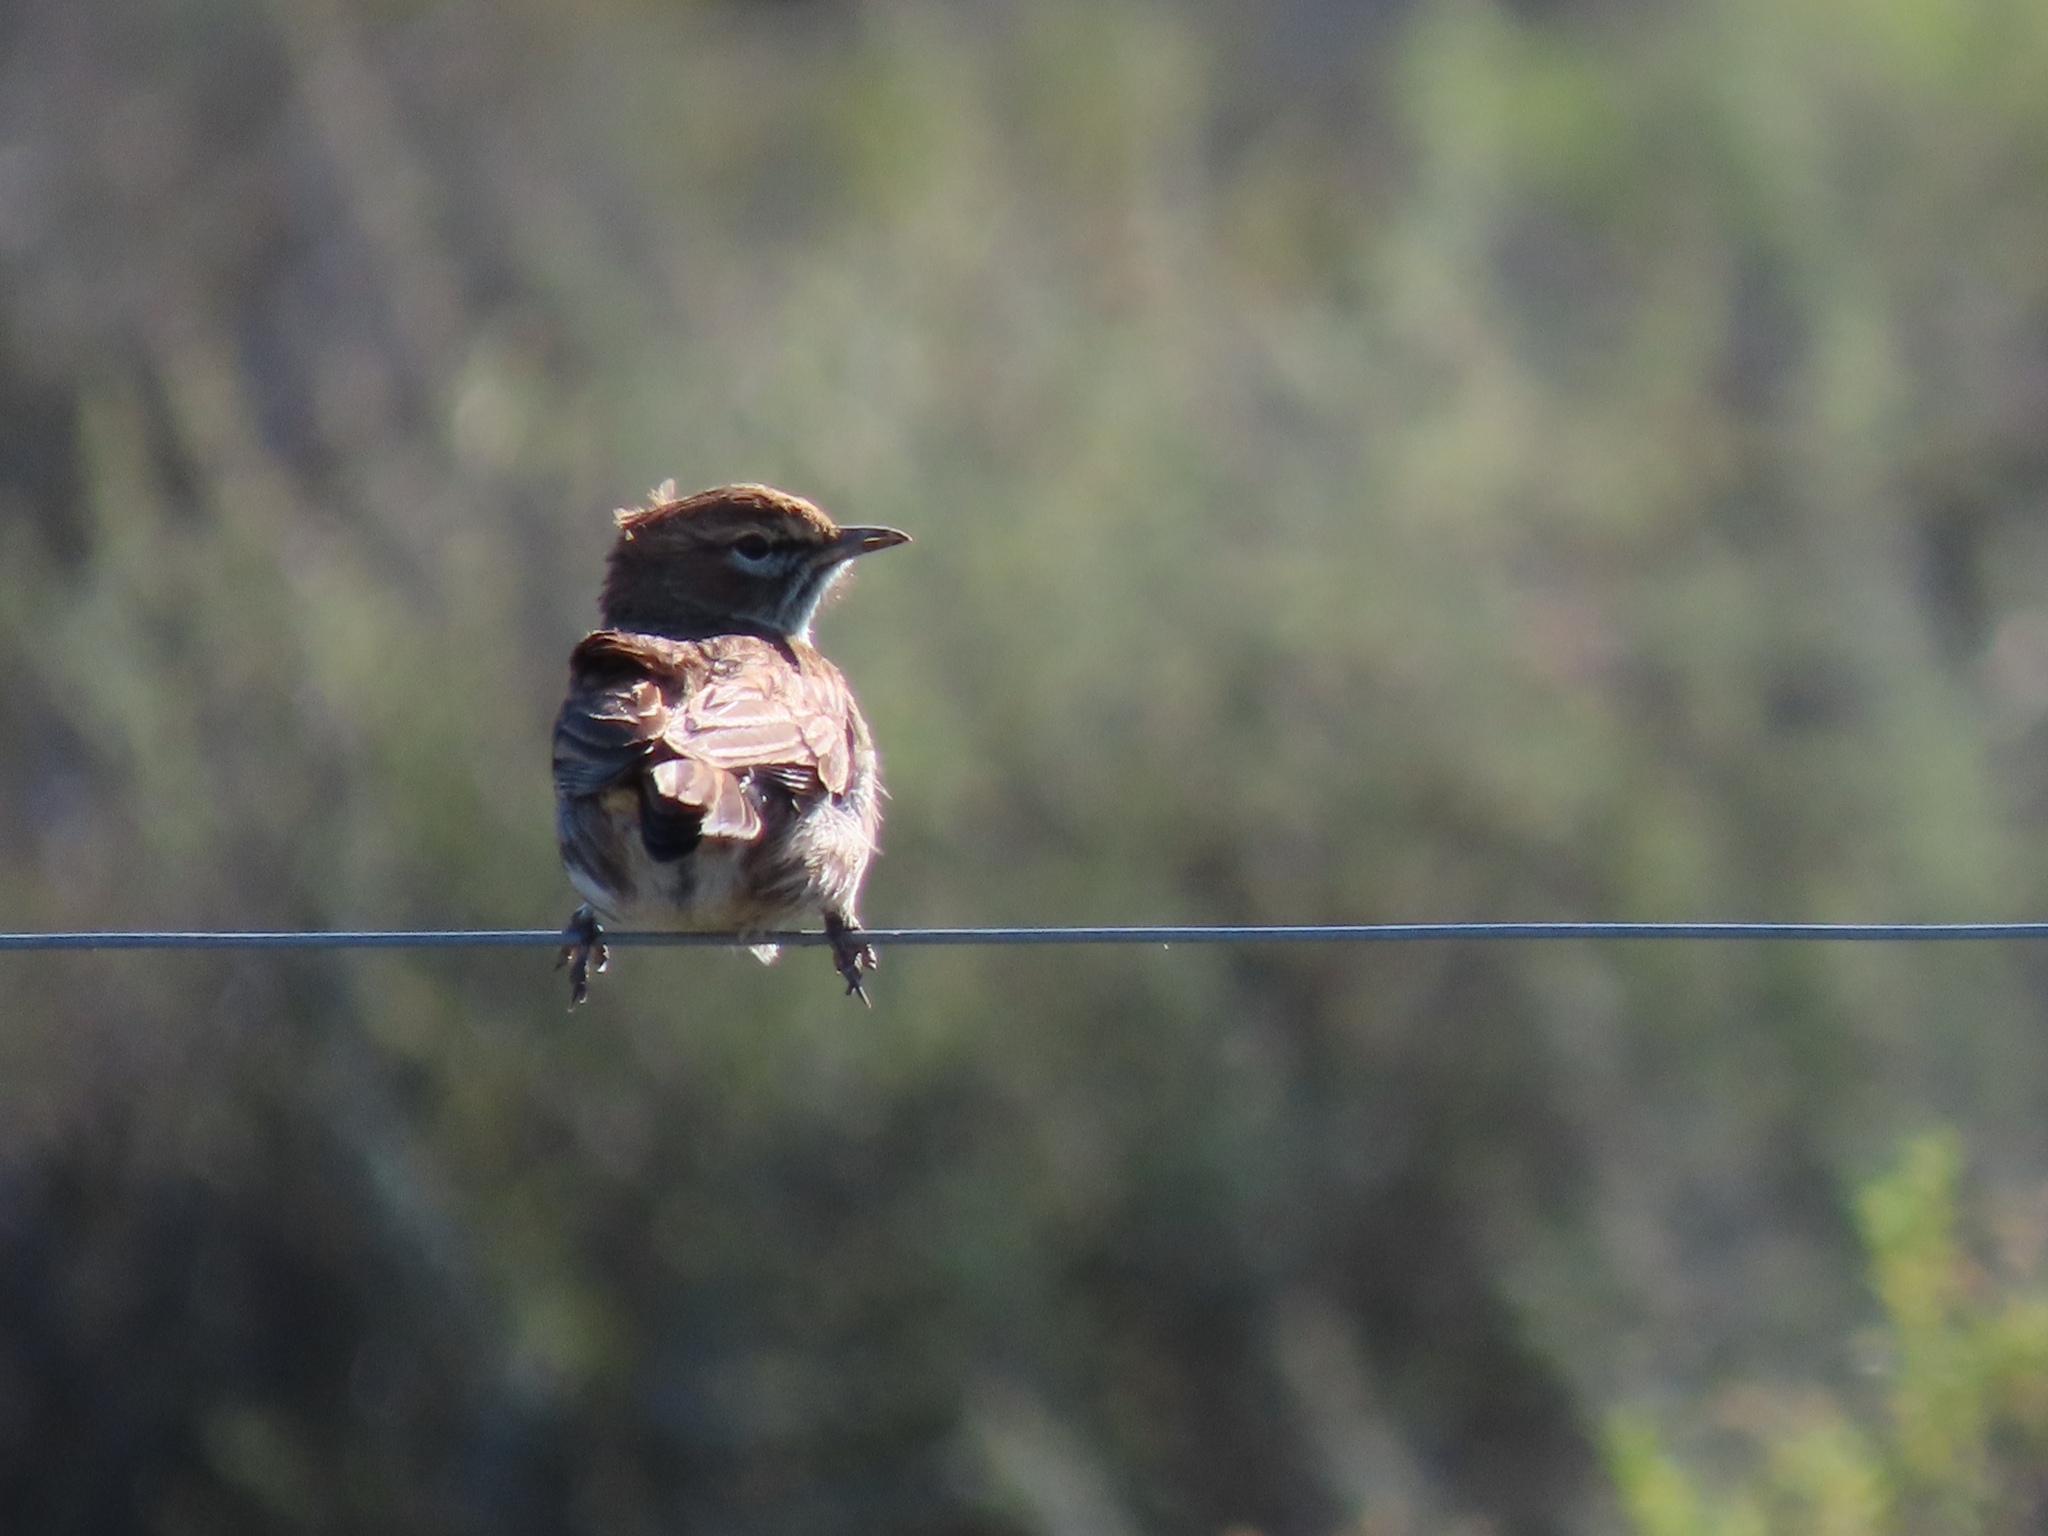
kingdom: Animalia
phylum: Chordata
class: Aves
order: Passeriformes
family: Alaudidae
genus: Calendulauda
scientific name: Calendulauda albescens
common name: Karoo lark
